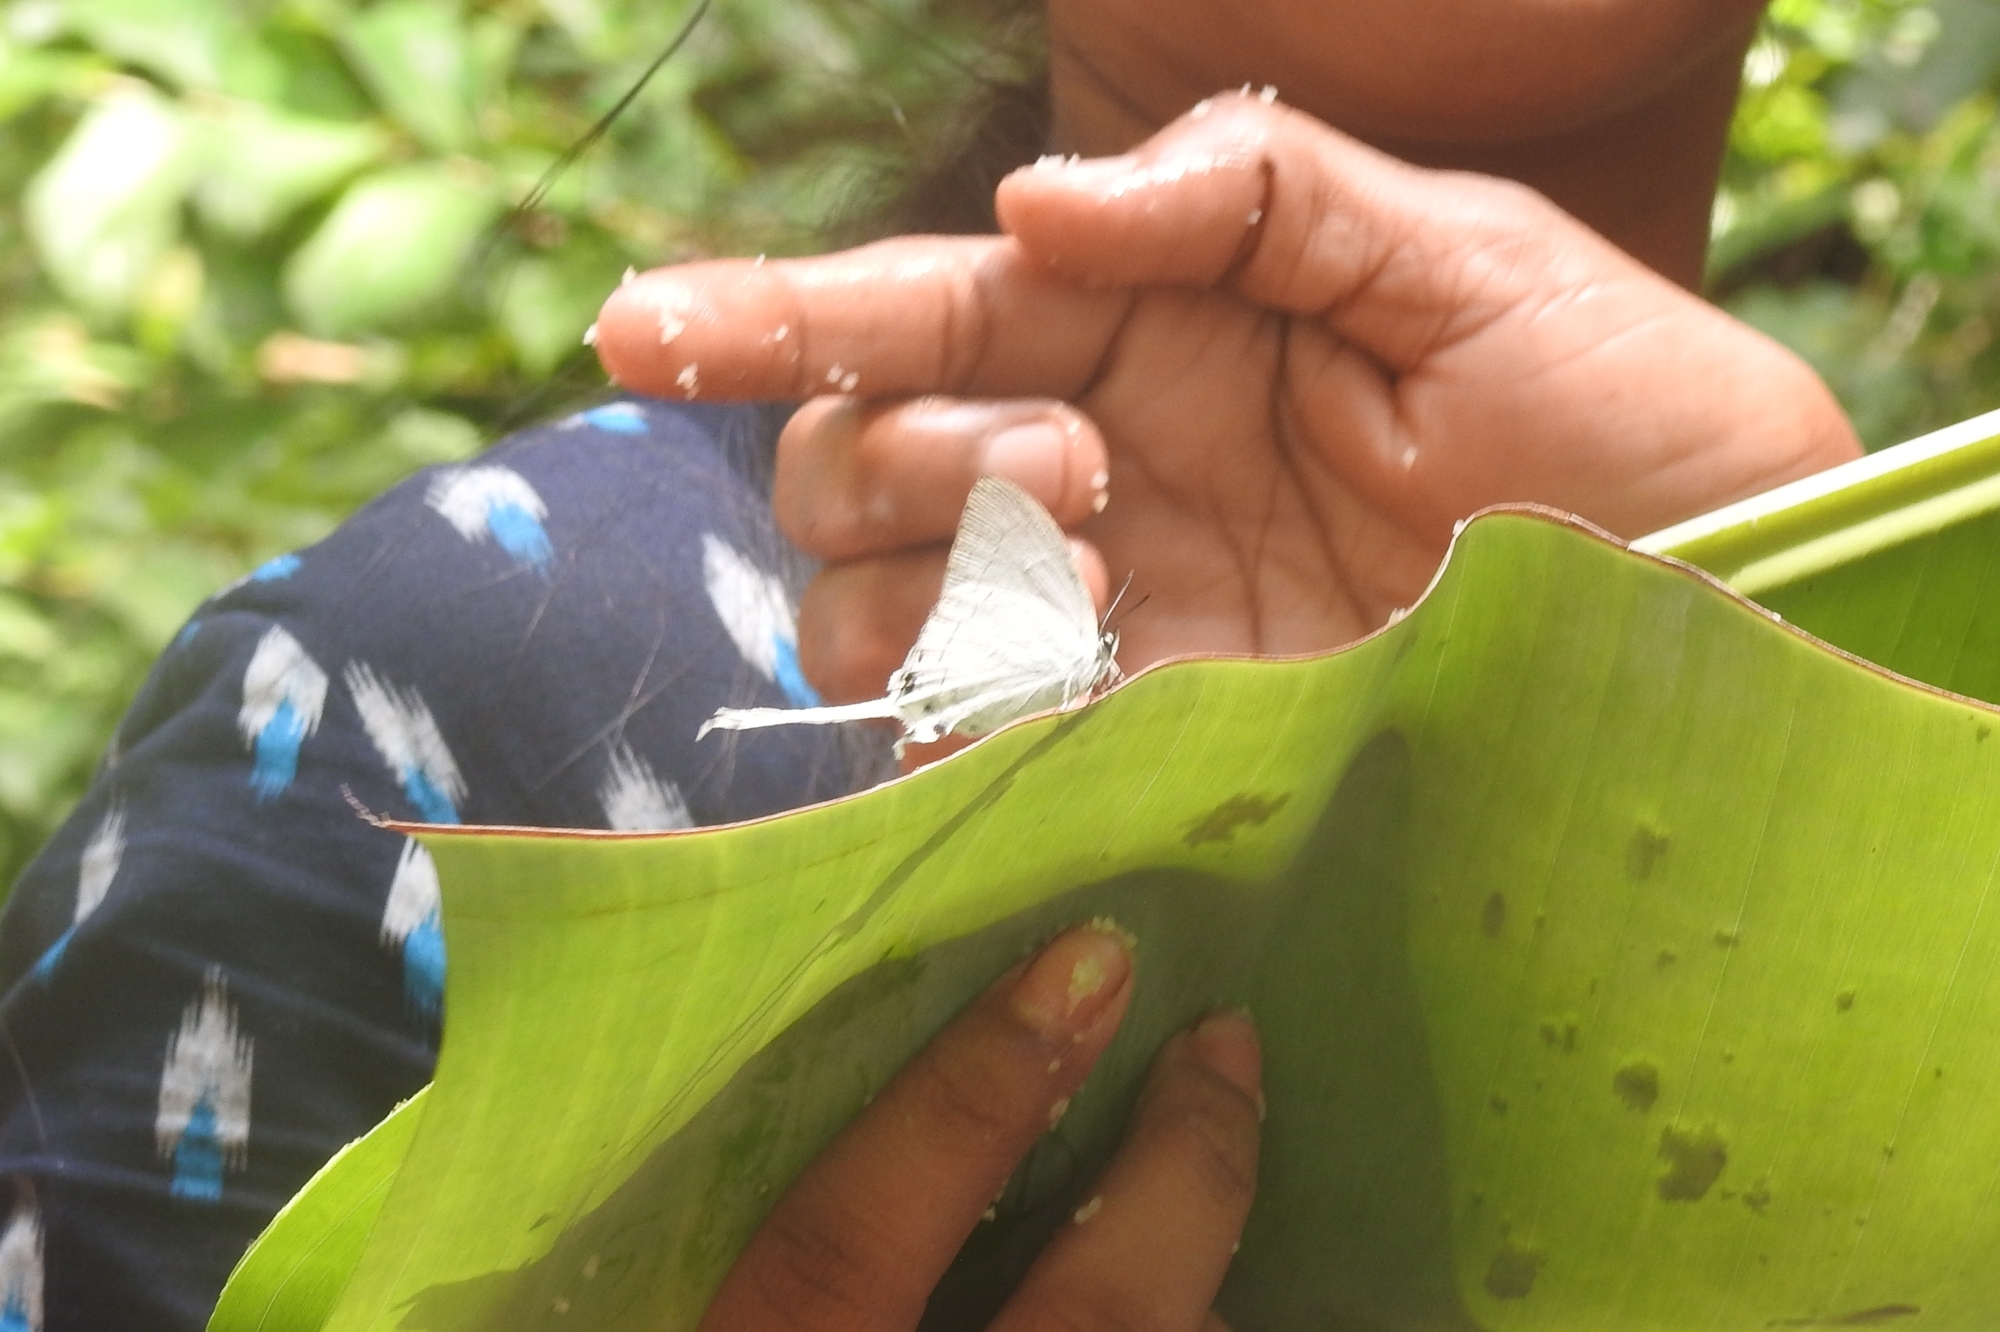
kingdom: Animalia
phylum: Arthropoda
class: Insecta
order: Lepidoptera
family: Lycaenidae
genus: Cheritra
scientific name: Cheritra freja
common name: Common imperial
